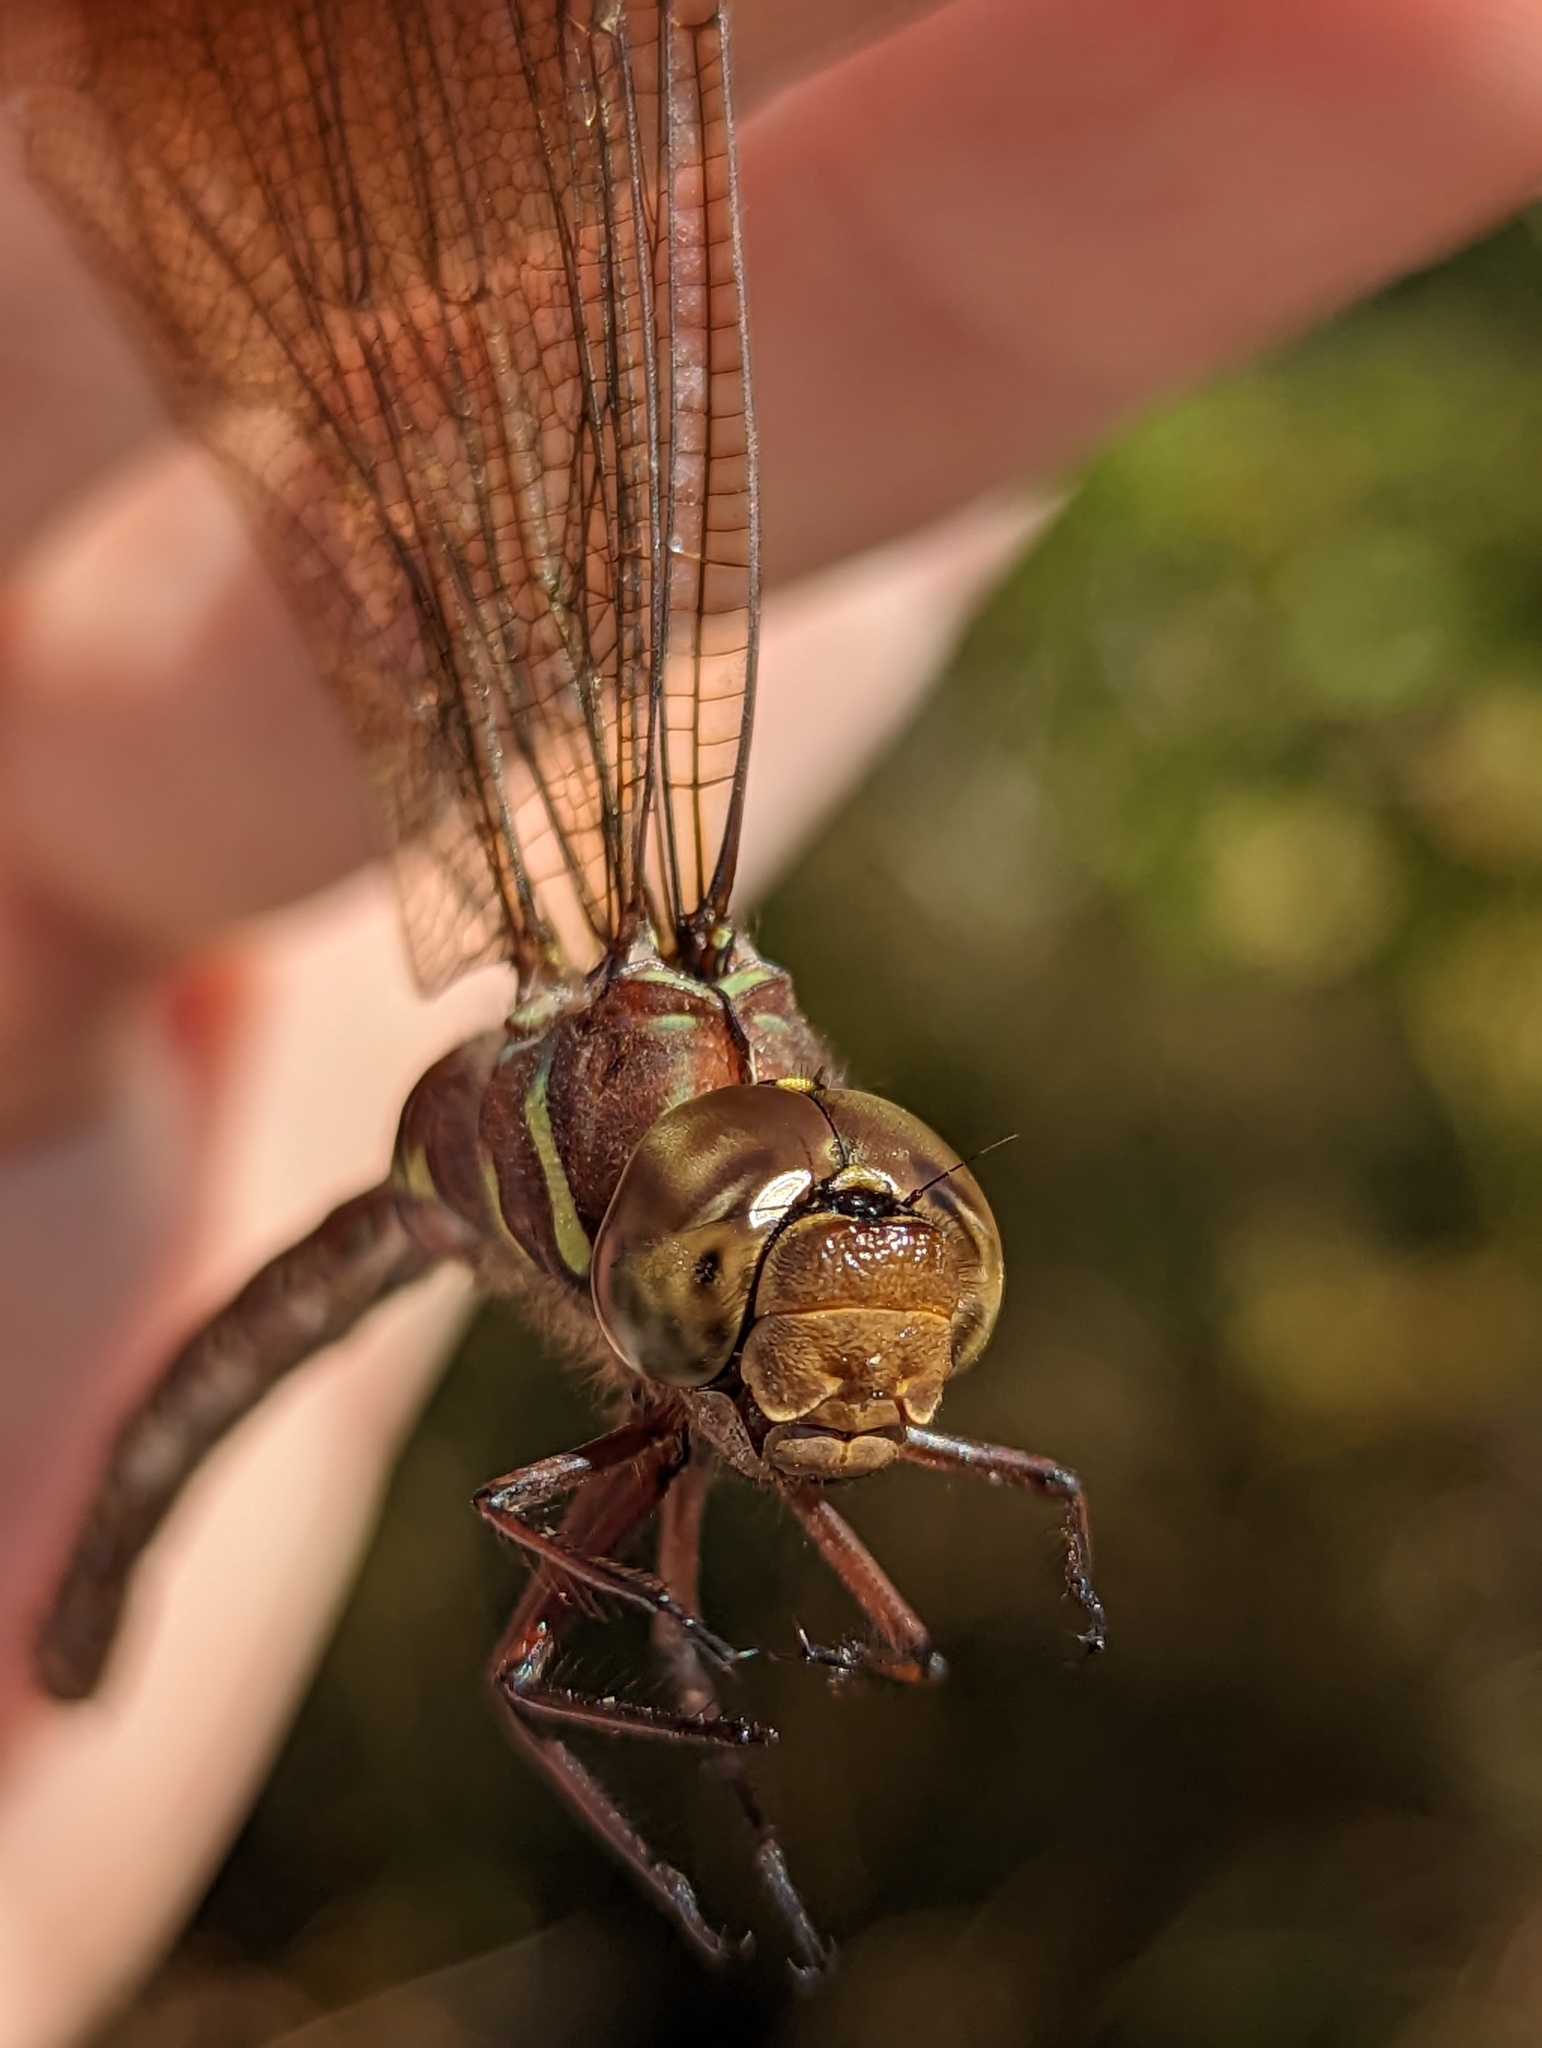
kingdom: Animalia
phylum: Arthropoda
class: Insecta
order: Odonata
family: Aeshnidae
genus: Aeshna
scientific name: Aeshna umbrosa
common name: Shadow darner
